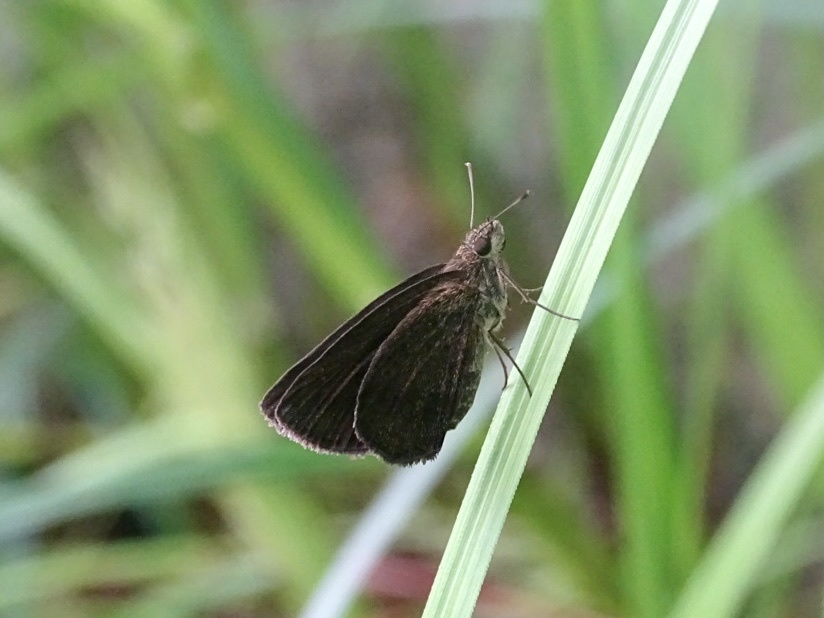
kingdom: Animalia
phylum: Arthropoda
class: Insecta
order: Lepidoptera
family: Hesperiidae
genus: Astictopterus
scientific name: Astictopterus jama
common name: Forest hopper
